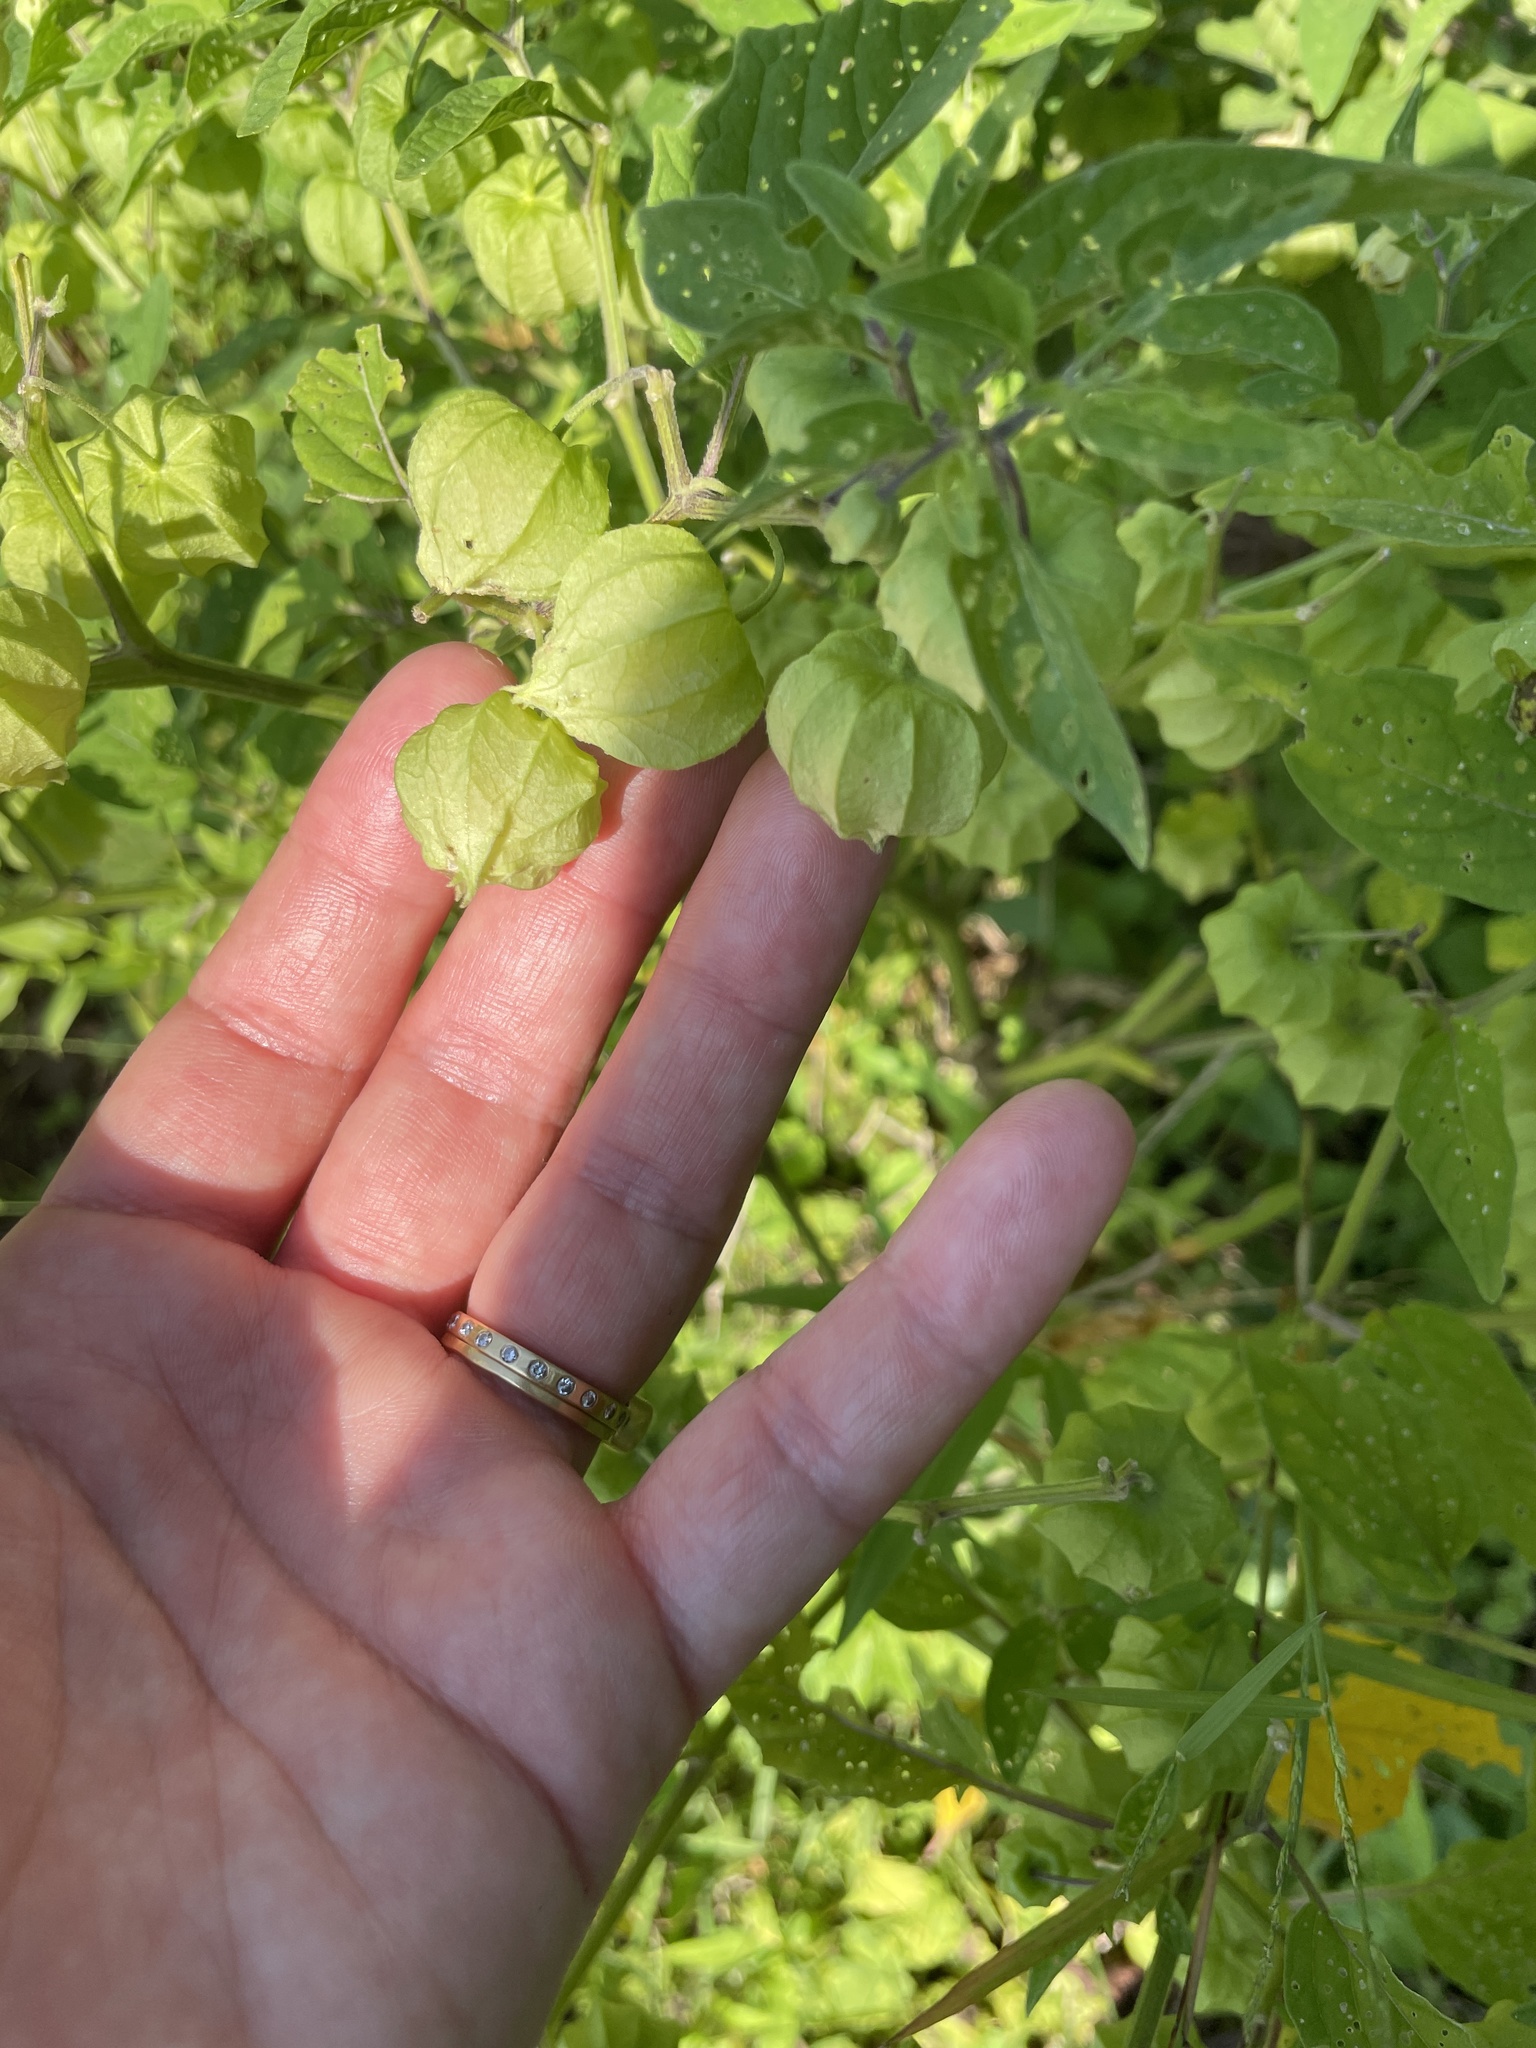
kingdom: Plantae
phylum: Tracheophyta
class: Magnoliopsida
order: Solanales
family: Solanaceae
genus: Physalis
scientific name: Physalis longifolia
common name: Common ground-cherry
